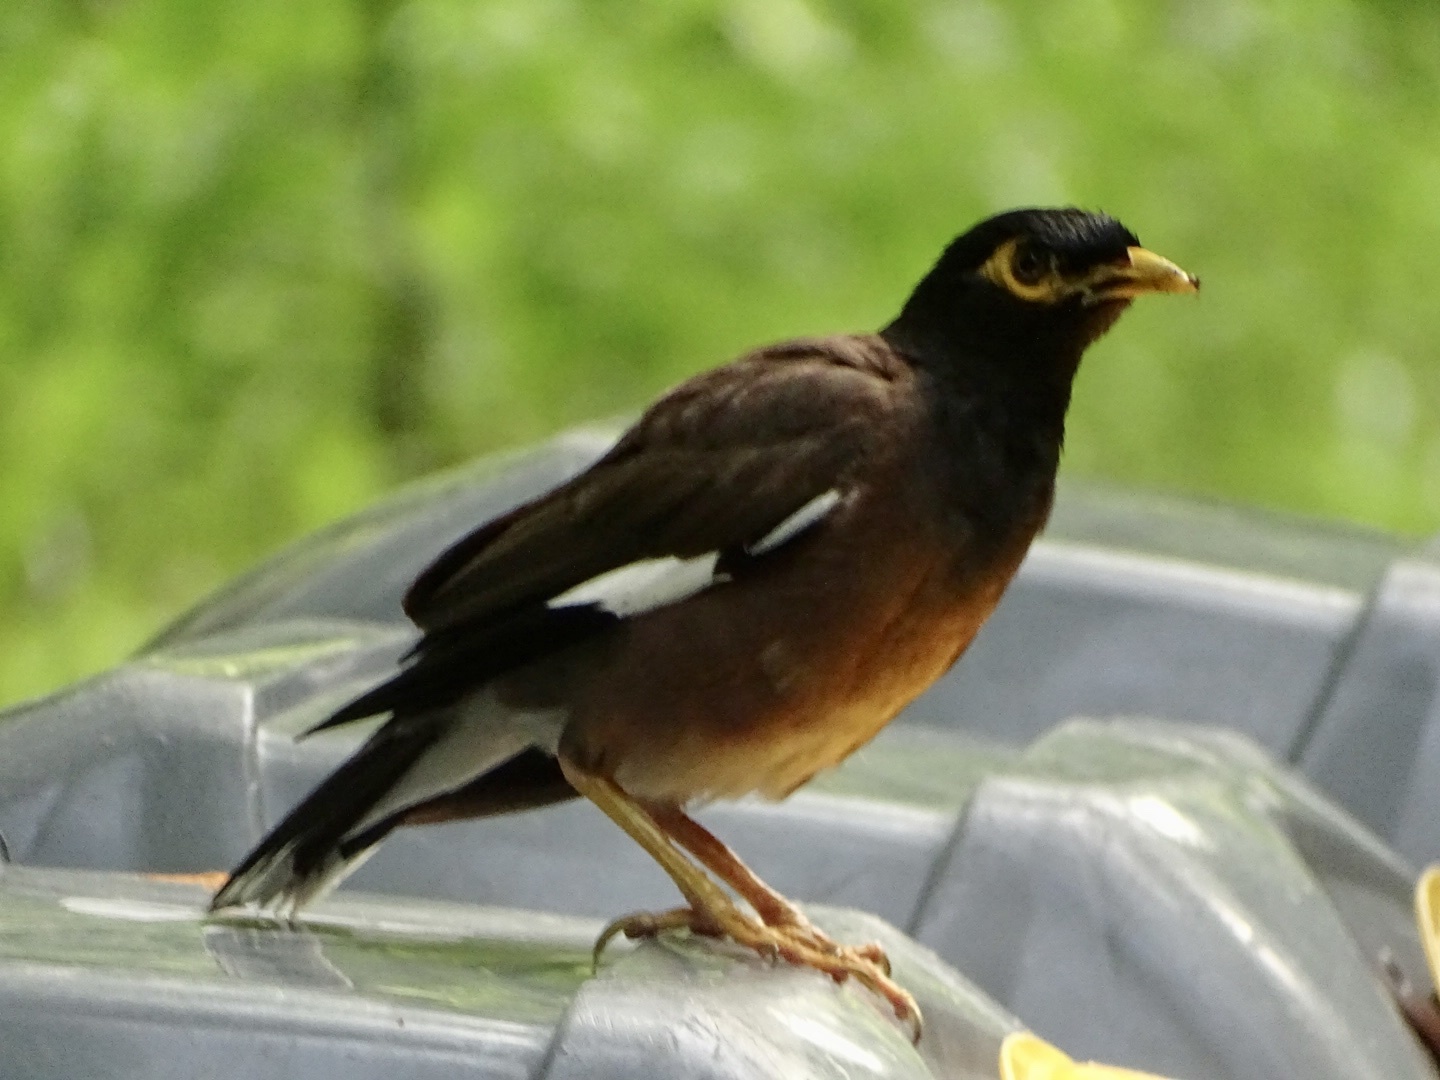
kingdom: Animalia
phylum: Chordata
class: Aves
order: Passeriformes
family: Sturnidae
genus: Acridotheres
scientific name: Acridotheres tristis
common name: Common myna
